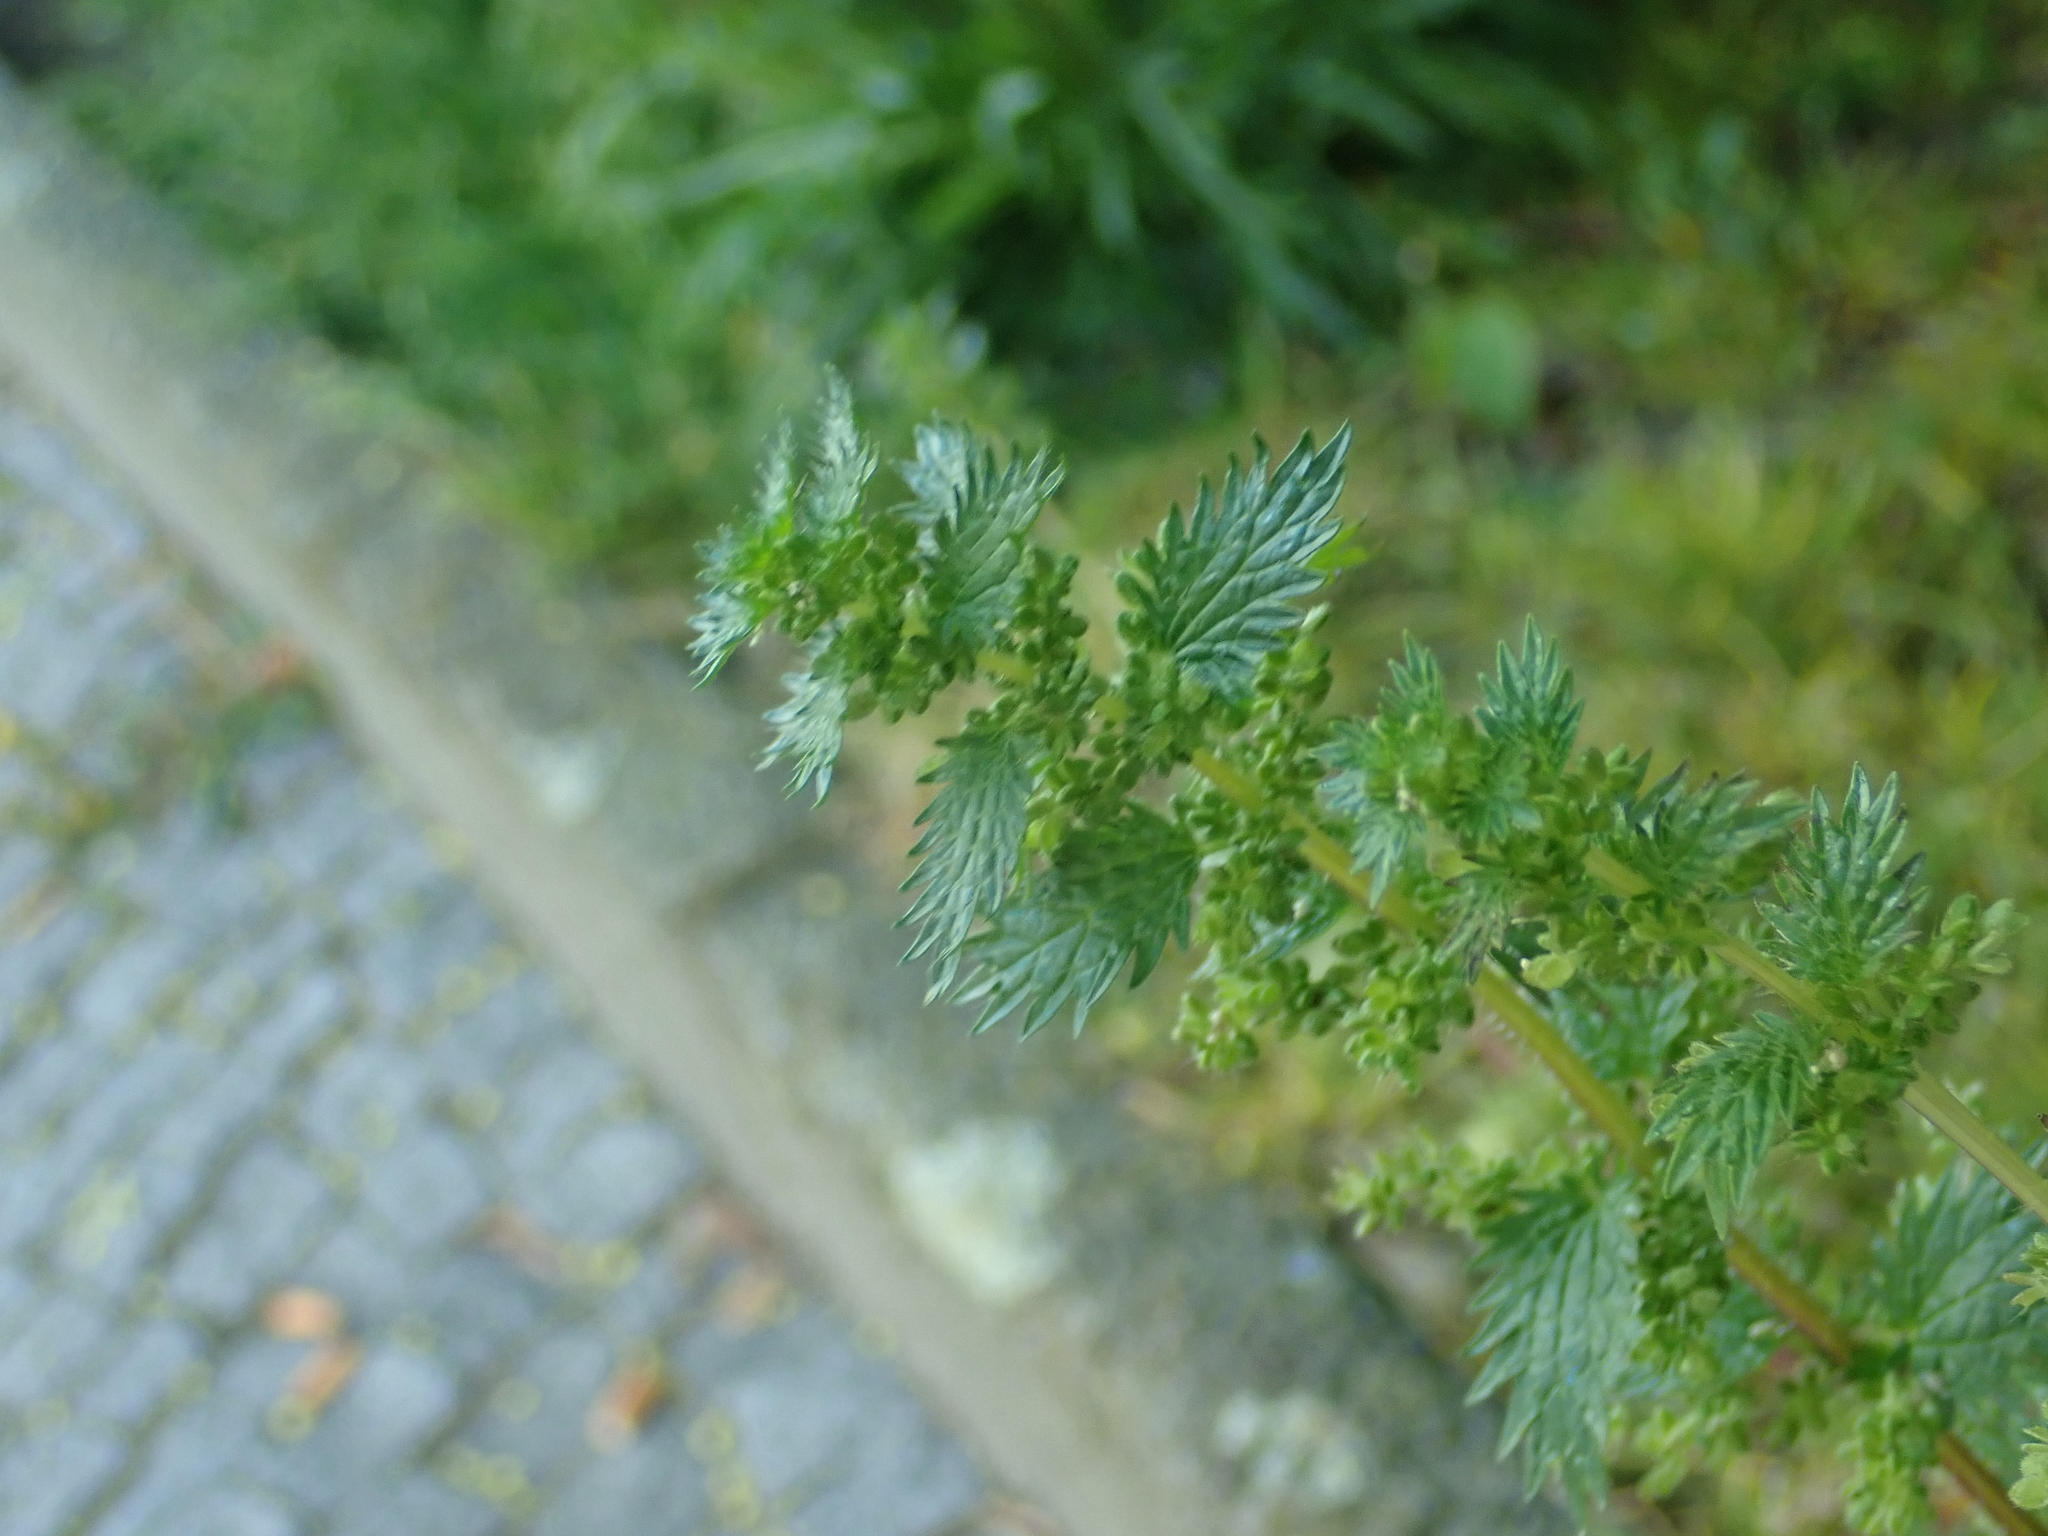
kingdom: Plantae
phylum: Tracheophyta
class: Magnoliopsida
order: Rosales
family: Urticaceae
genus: Urtica
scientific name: Urtica urens
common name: Dwarf nettle
